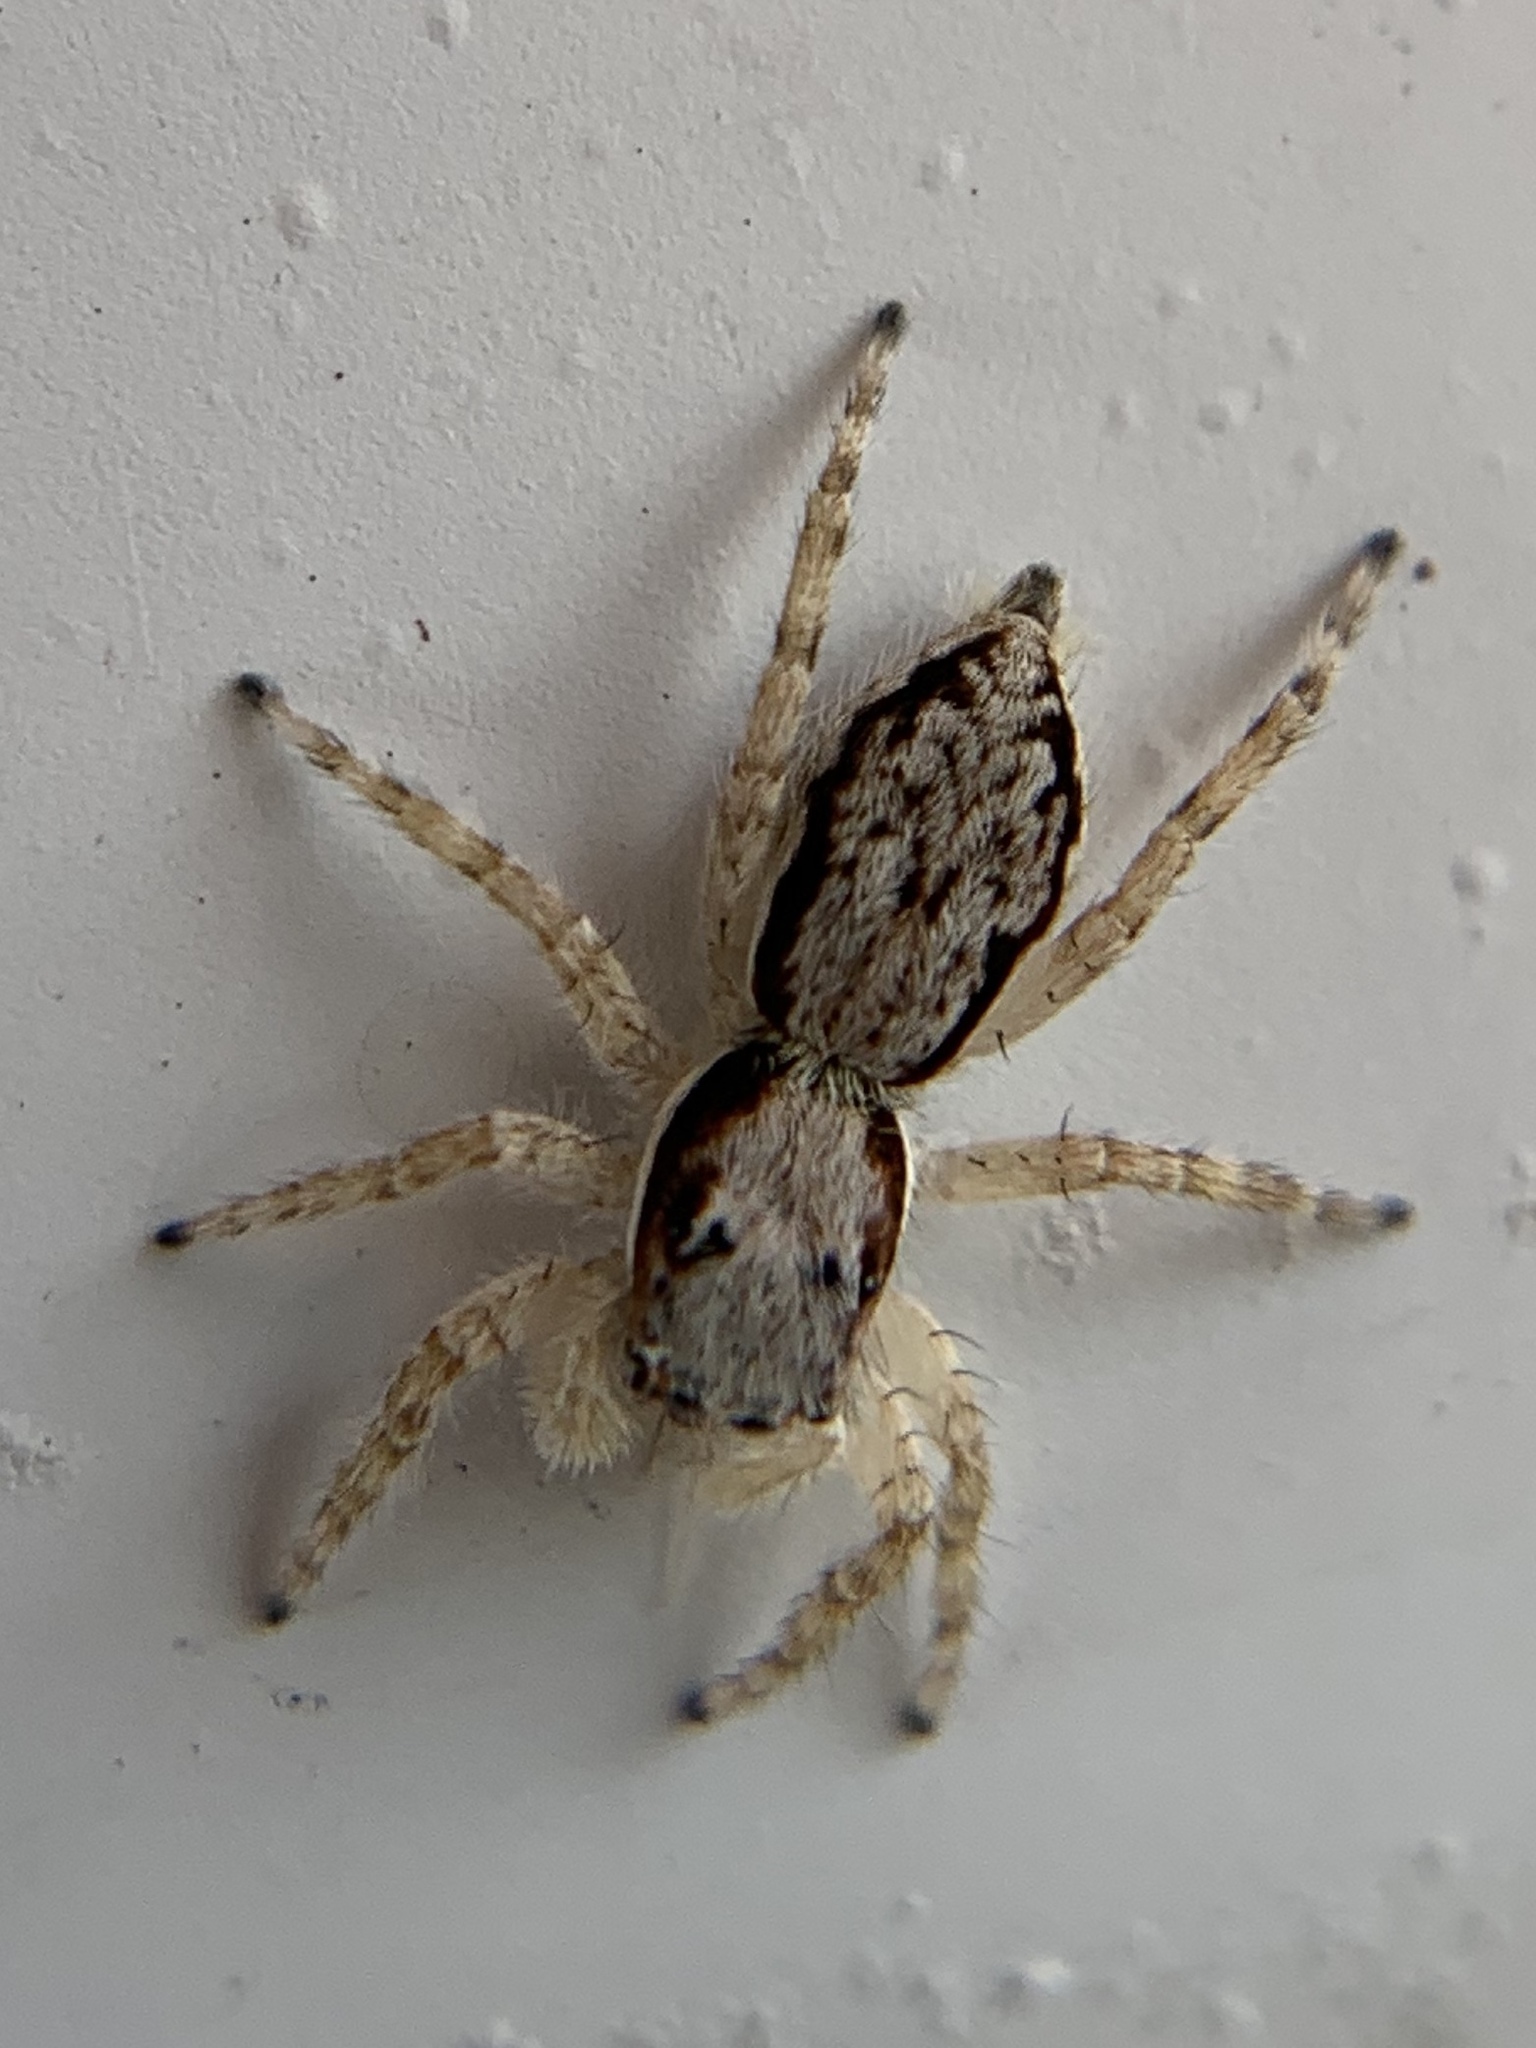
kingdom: Animalia
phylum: Arthropoda
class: Arachnida
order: Araneae
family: Salticidae
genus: Menemerus
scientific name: Menemerus bivittatus
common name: Gray wall jumper
